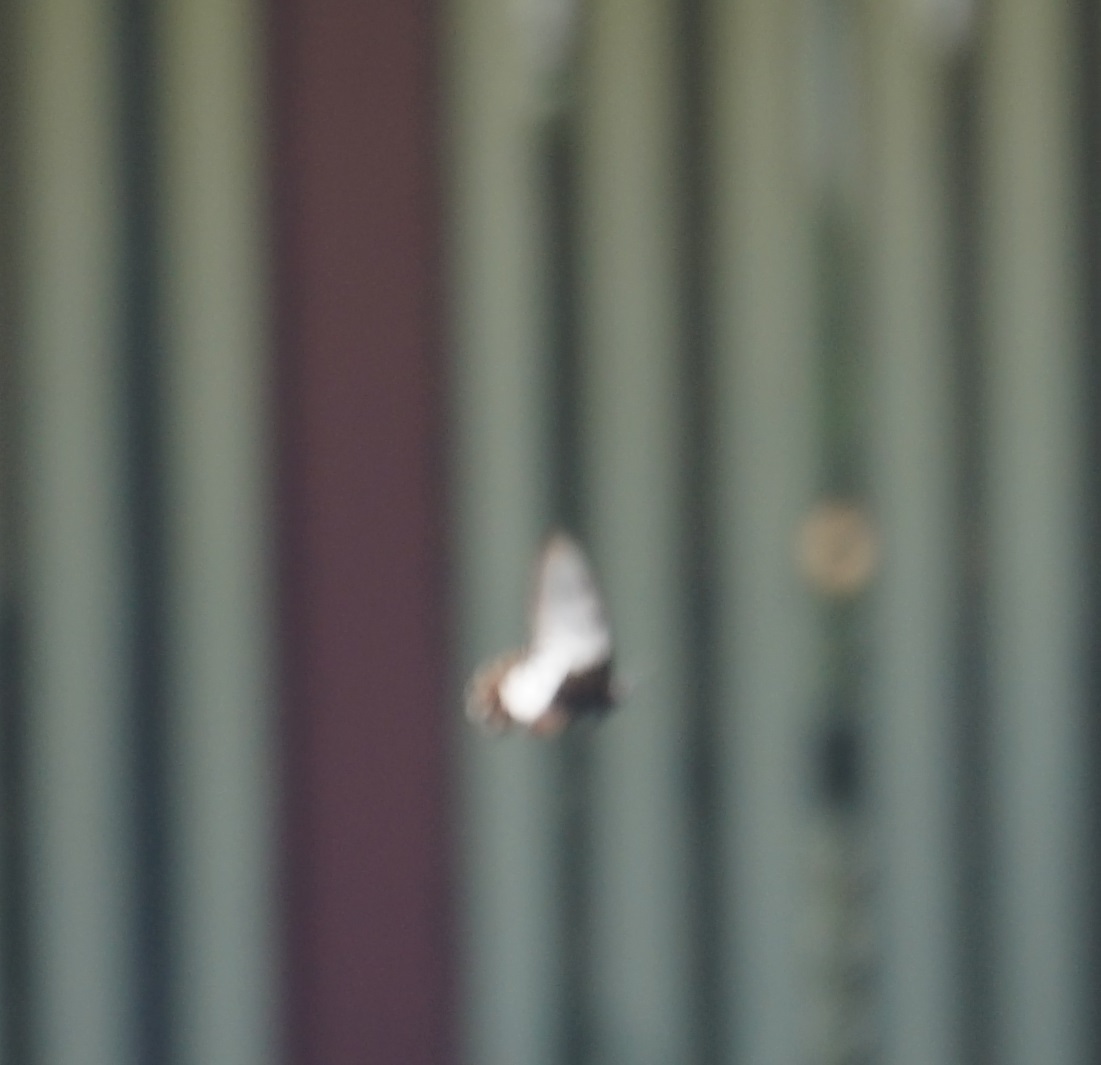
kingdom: Animalia
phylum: Arthropoda
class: Insecta
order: Lepidoptera
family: Papilionidae
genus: Cressida
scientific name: Cressida cressida
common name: Big greasy
